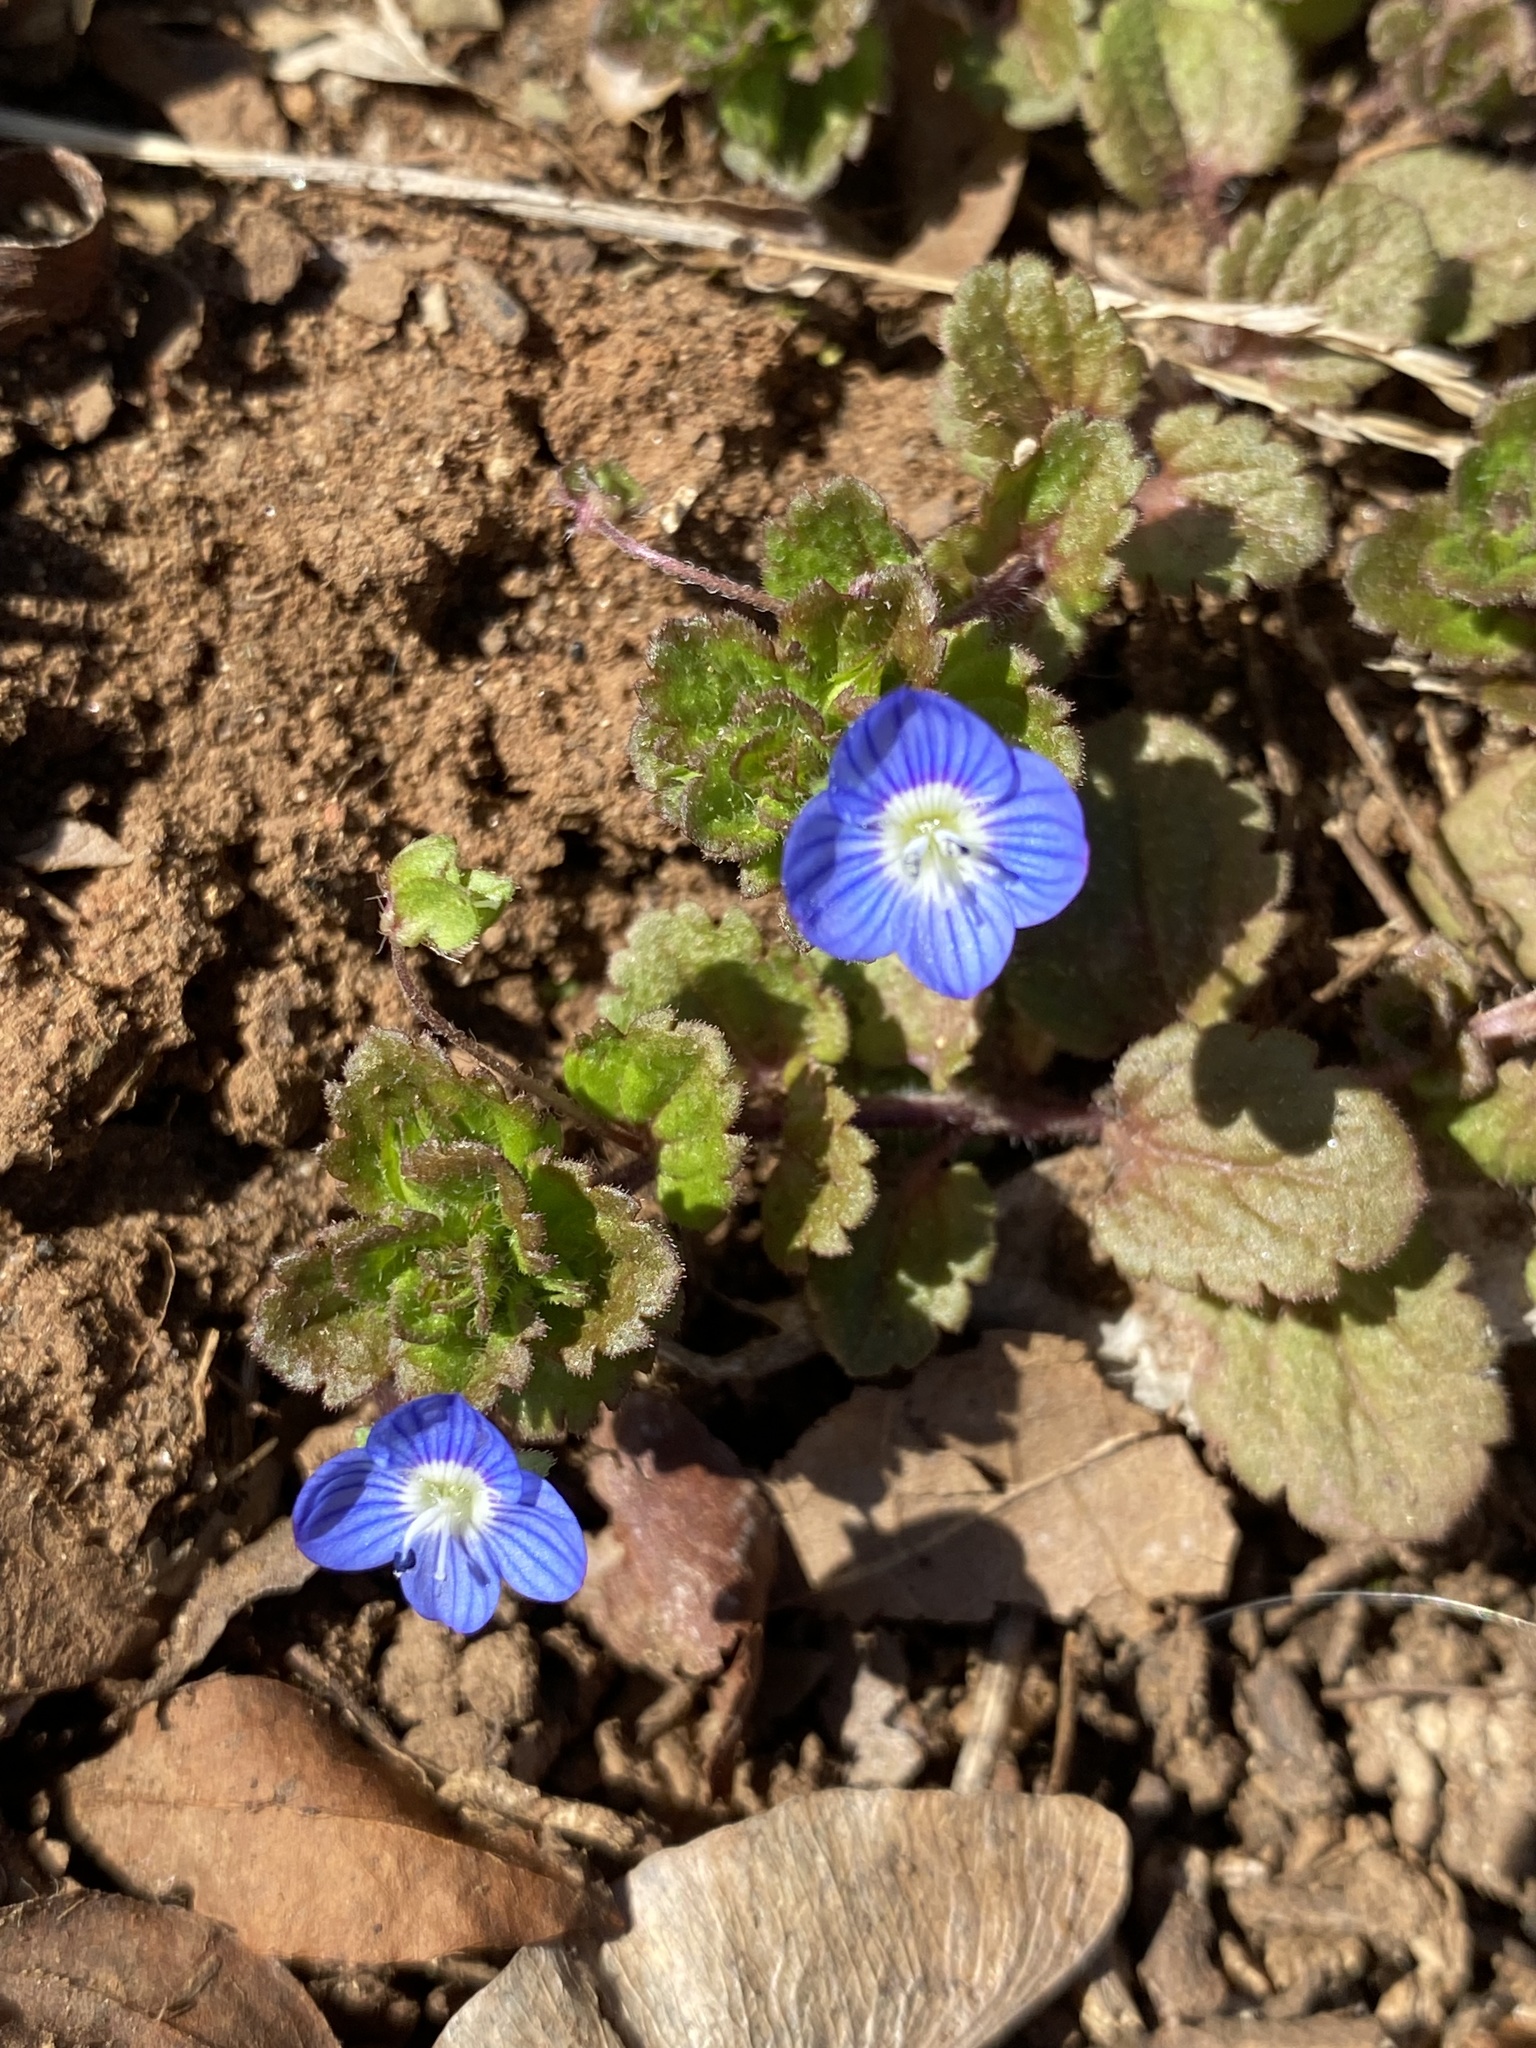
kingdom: Plantae
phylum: Tracheophyta
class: Magnoliopsida
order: Lamiales
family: Plantaginaceae
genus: Veronica
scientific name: Veronica persica
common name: Common field-speedwell
